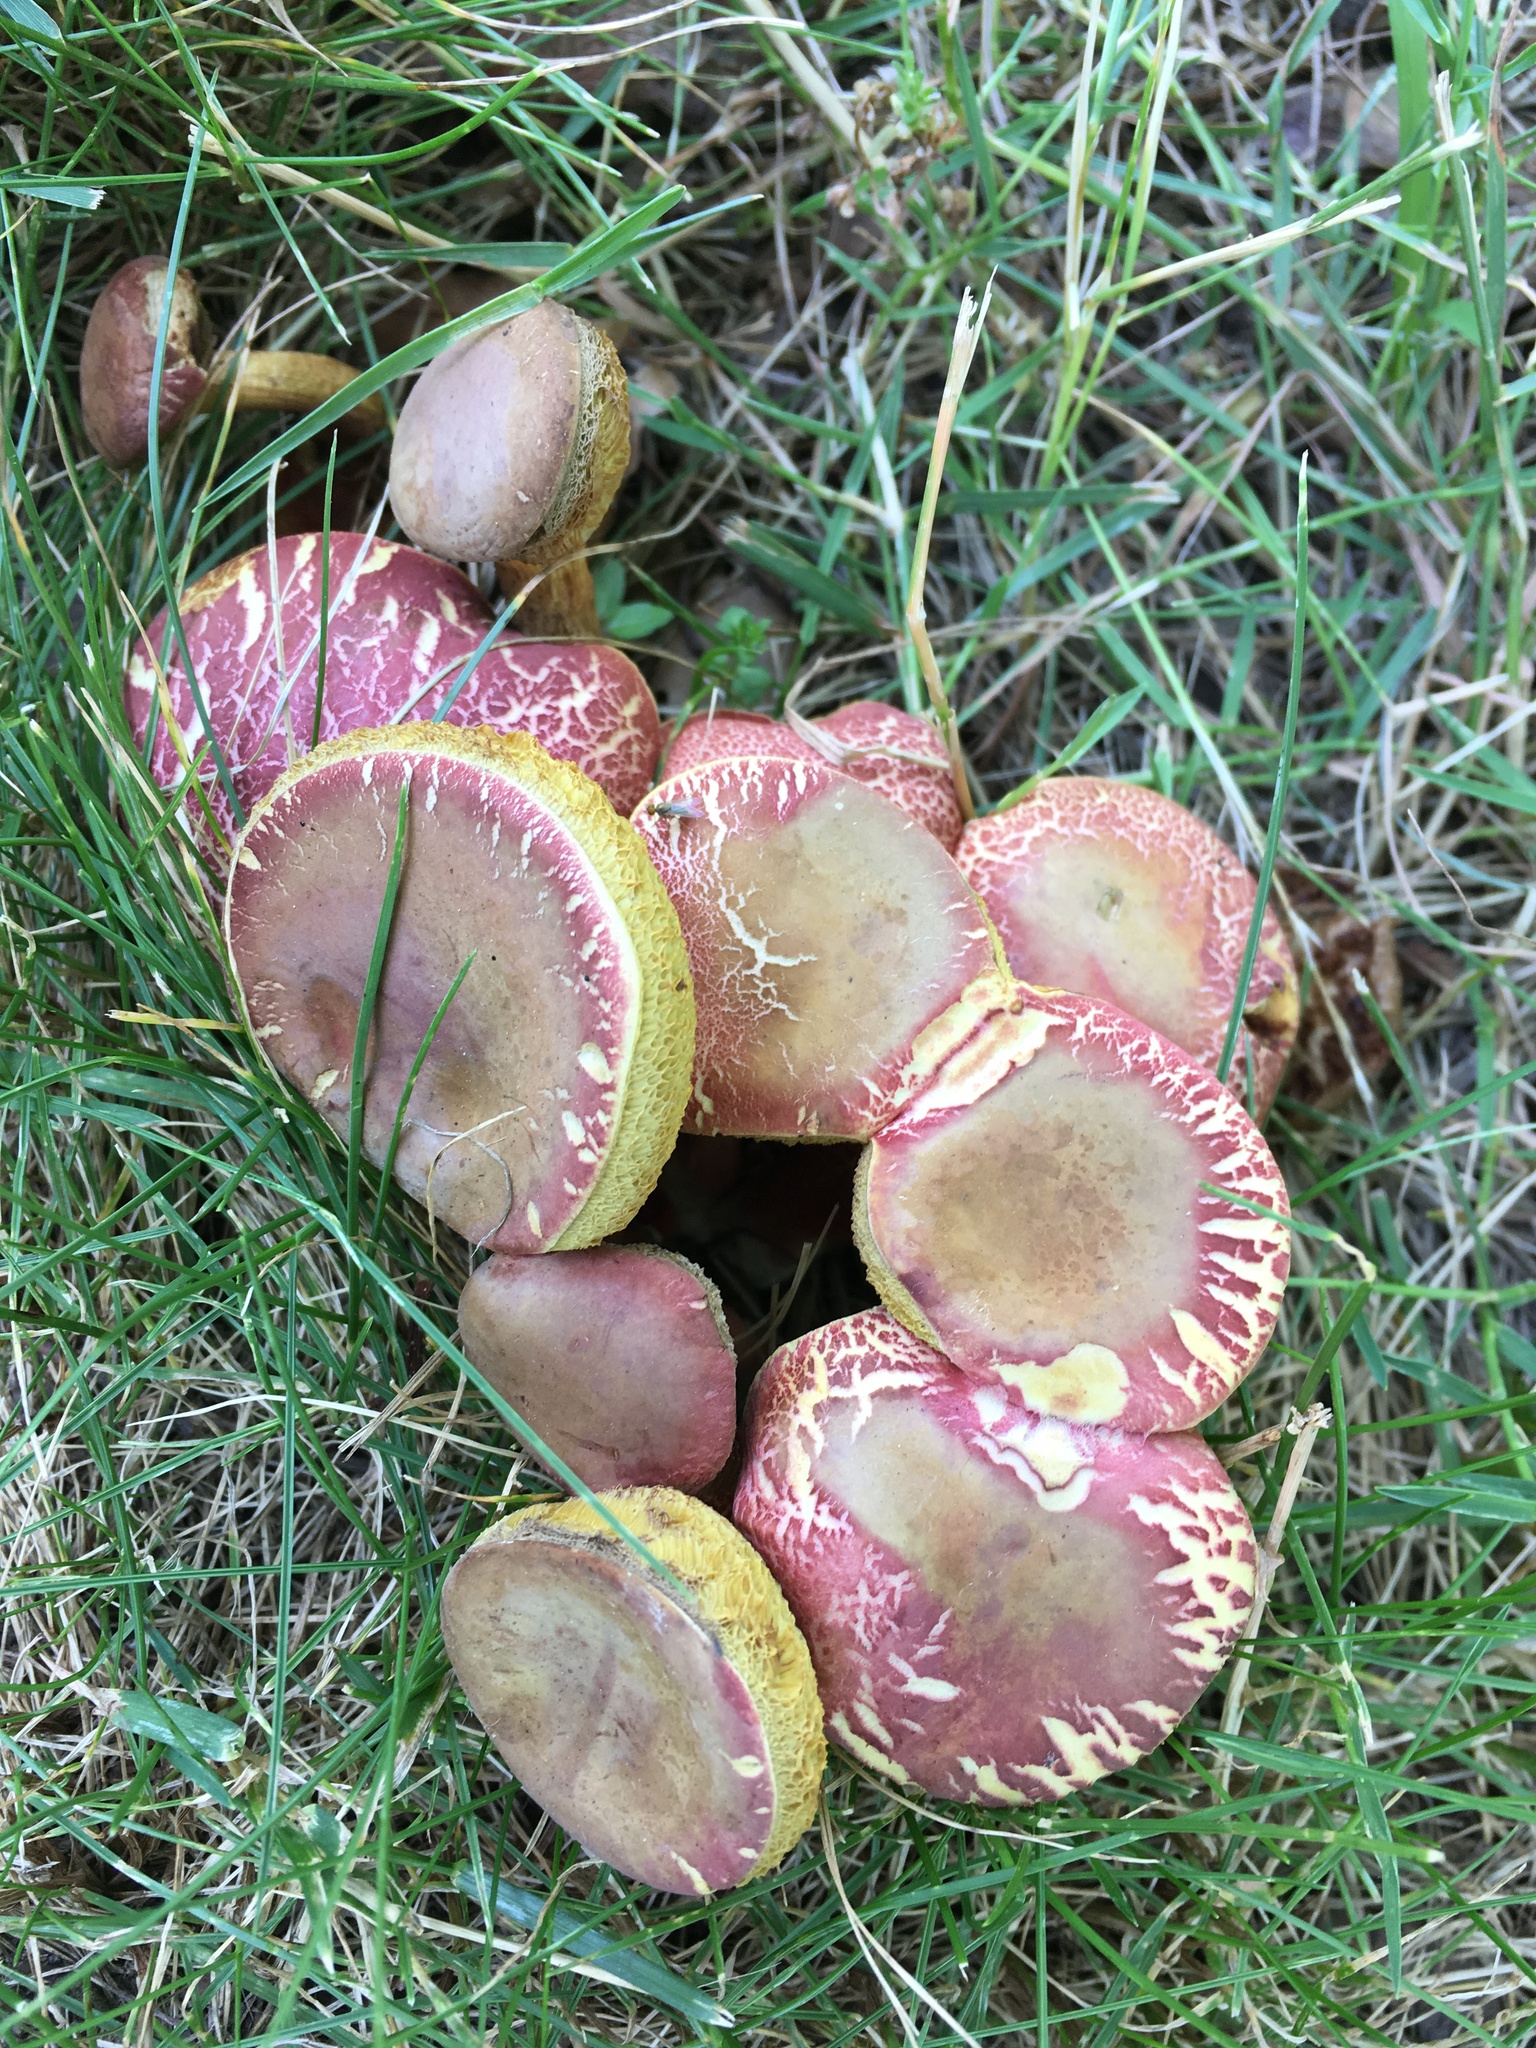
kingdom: Fungi
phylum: Basidiomycota
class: Agaricomycetes
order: Boletales
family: Boletaceae
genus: Xerocomellus
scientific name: Xerocomellus chrysenteron
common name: Red-cracking bolete
